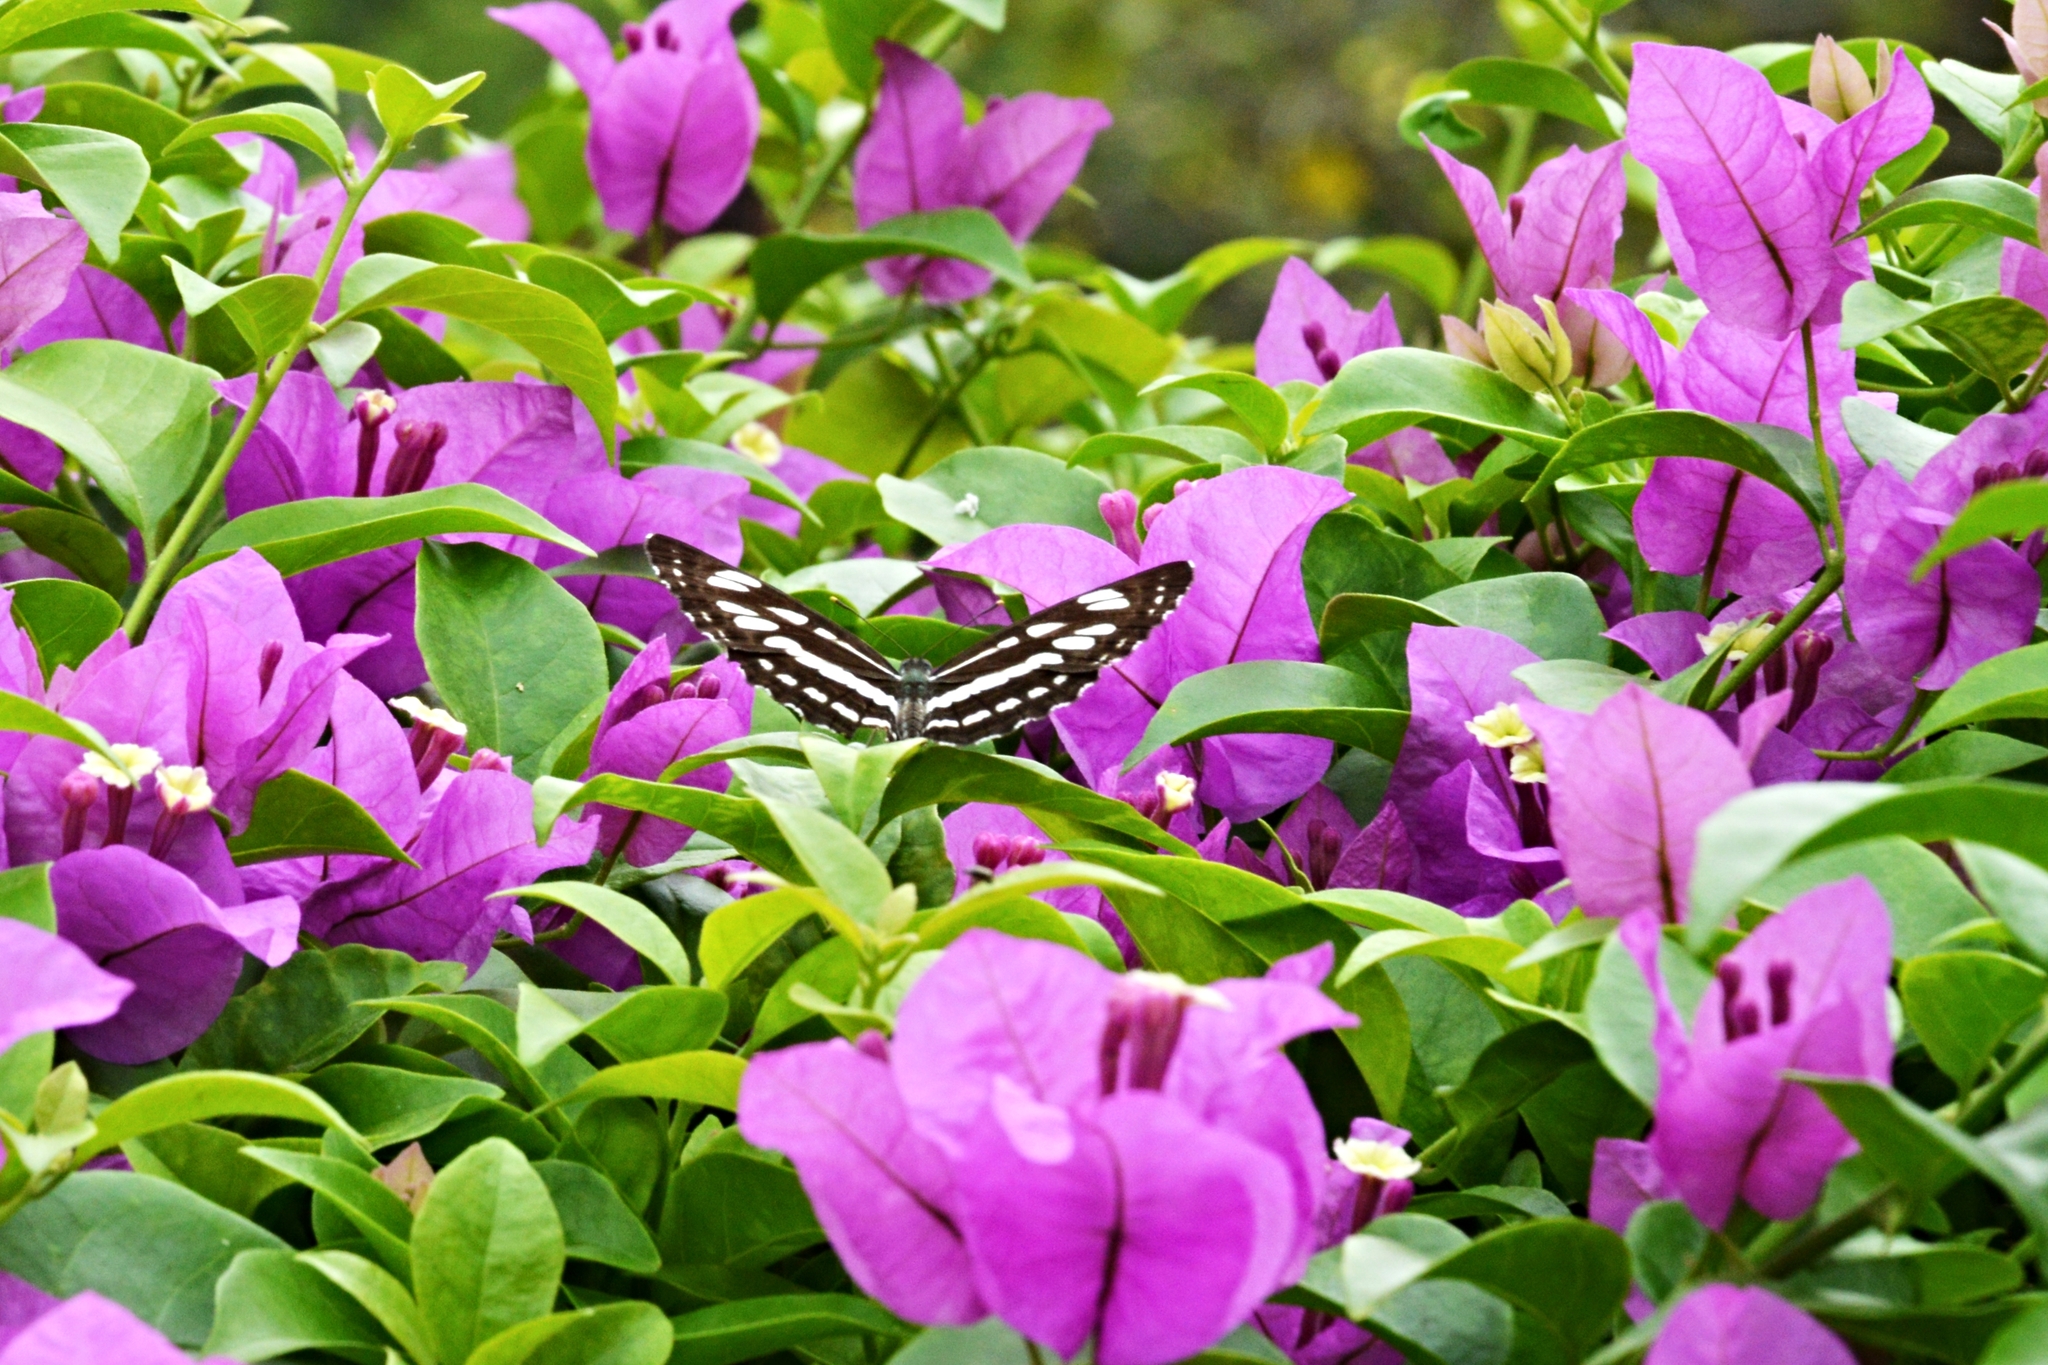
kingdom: Animalia
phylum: Arthropoda
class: Insecta
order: Lepidoptera
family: Nymphalidae
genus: Neptis
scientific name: Neptis hylas
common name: Common sailer
